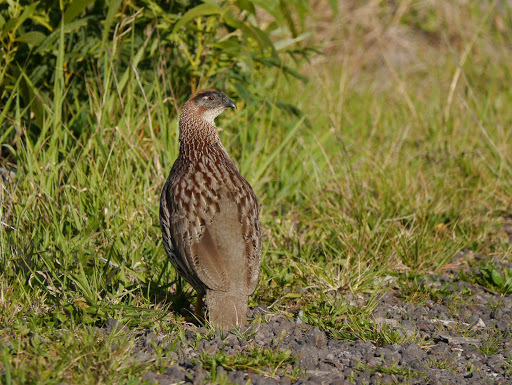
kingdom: Animalia
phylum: Chordata
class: Aves
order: Galliformes
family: Phasianidae
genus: Pternistis
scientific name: Pternistis erckelii
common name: Erckel's francolin
